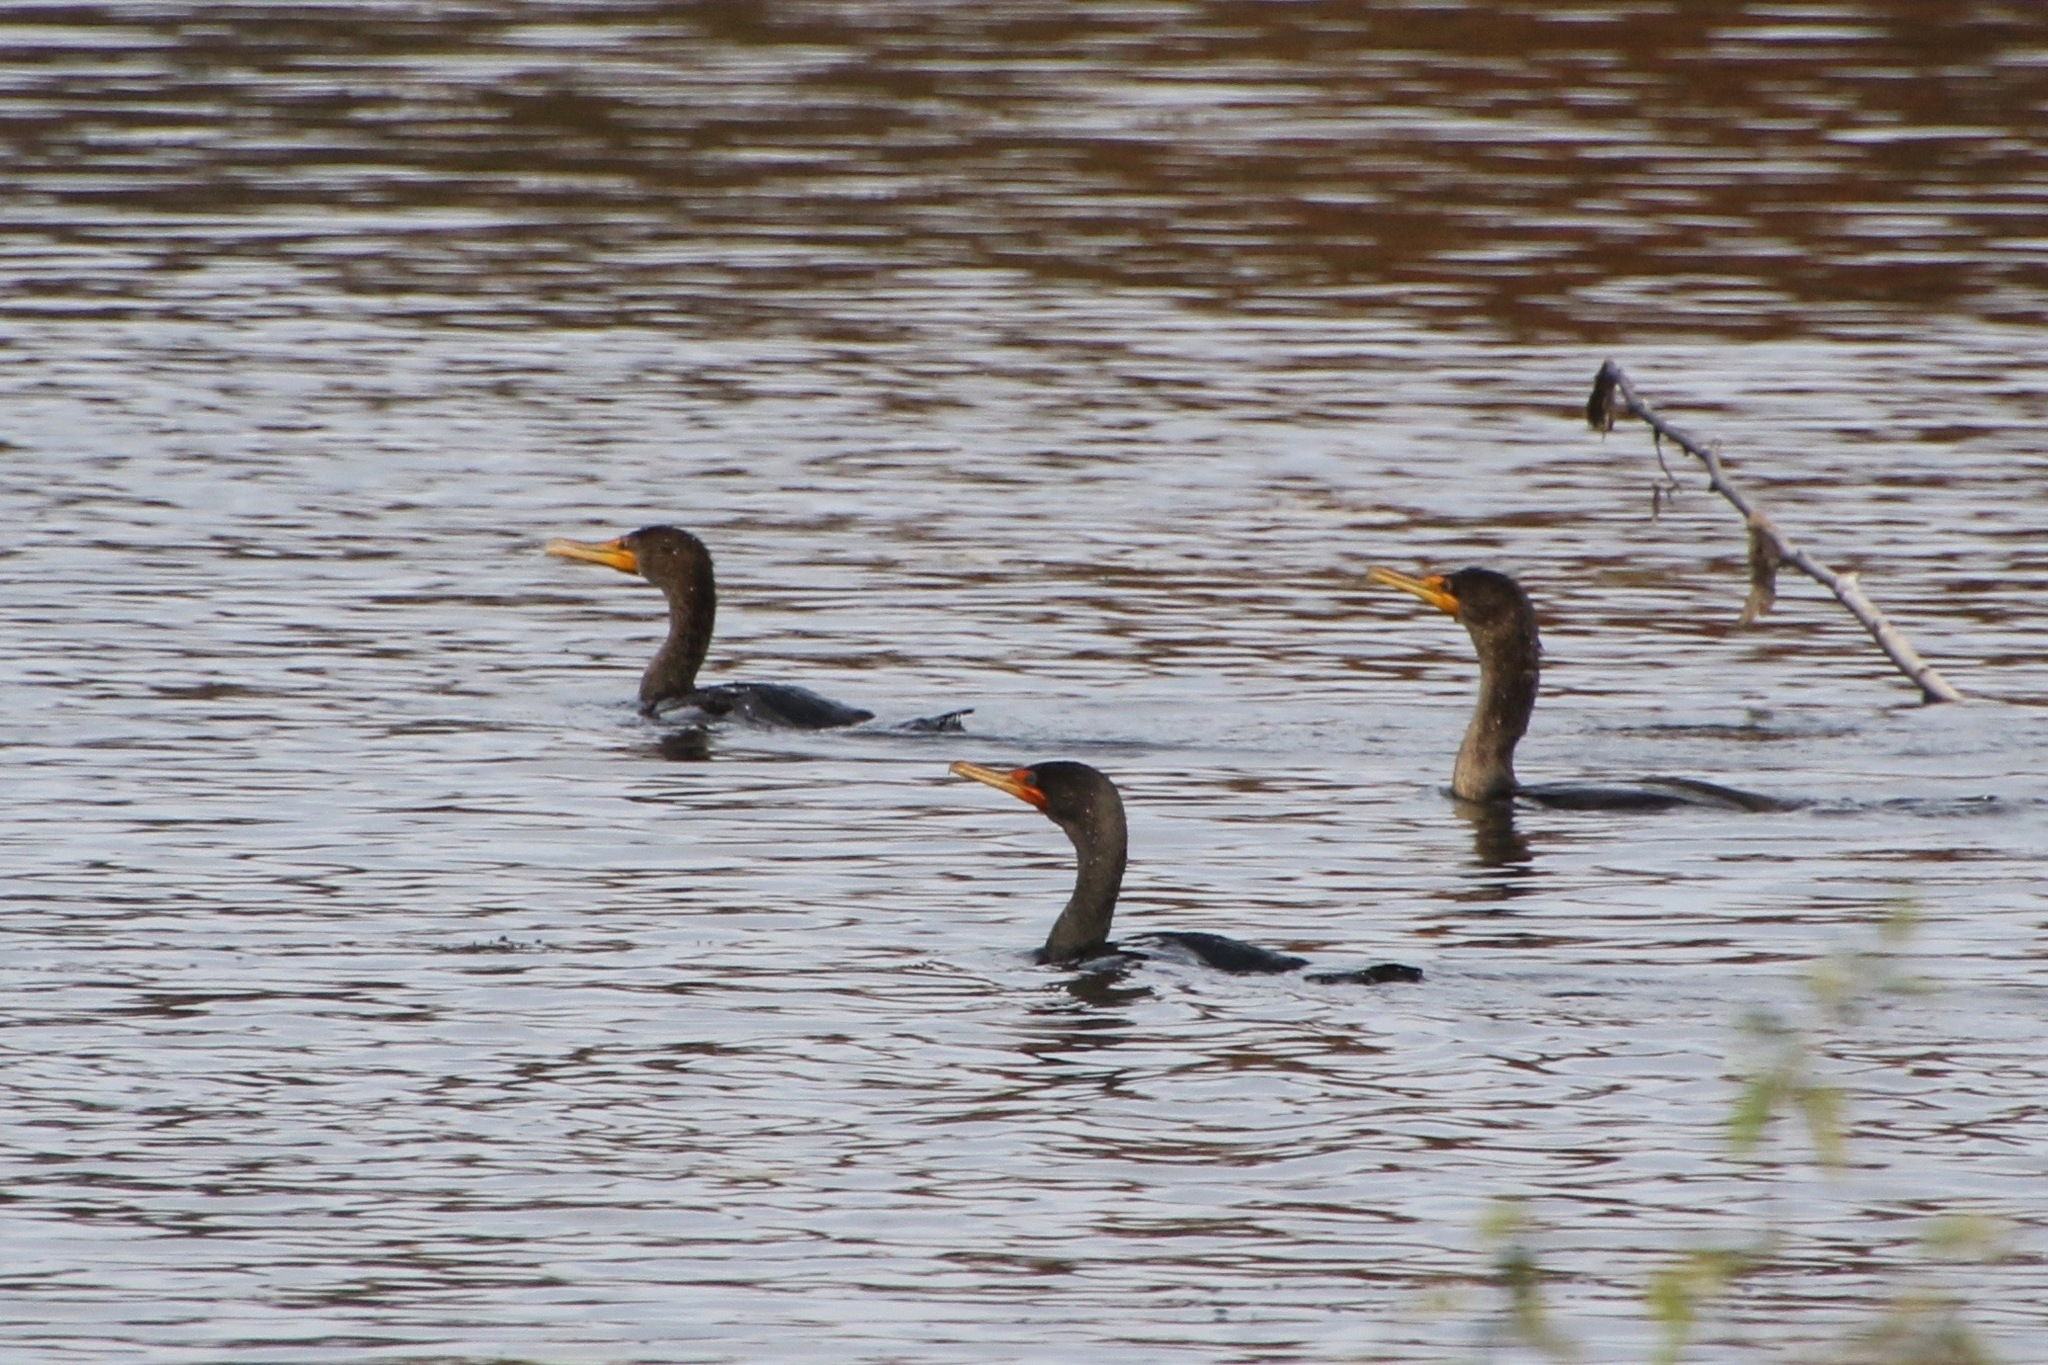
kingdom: Animalia
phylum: Chordata
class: Aves
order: Suliformes
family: Phalacrocoracidae
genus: Phalacrocorax
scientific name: Phalacrocorax auritus
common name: Double-crested cormorant
